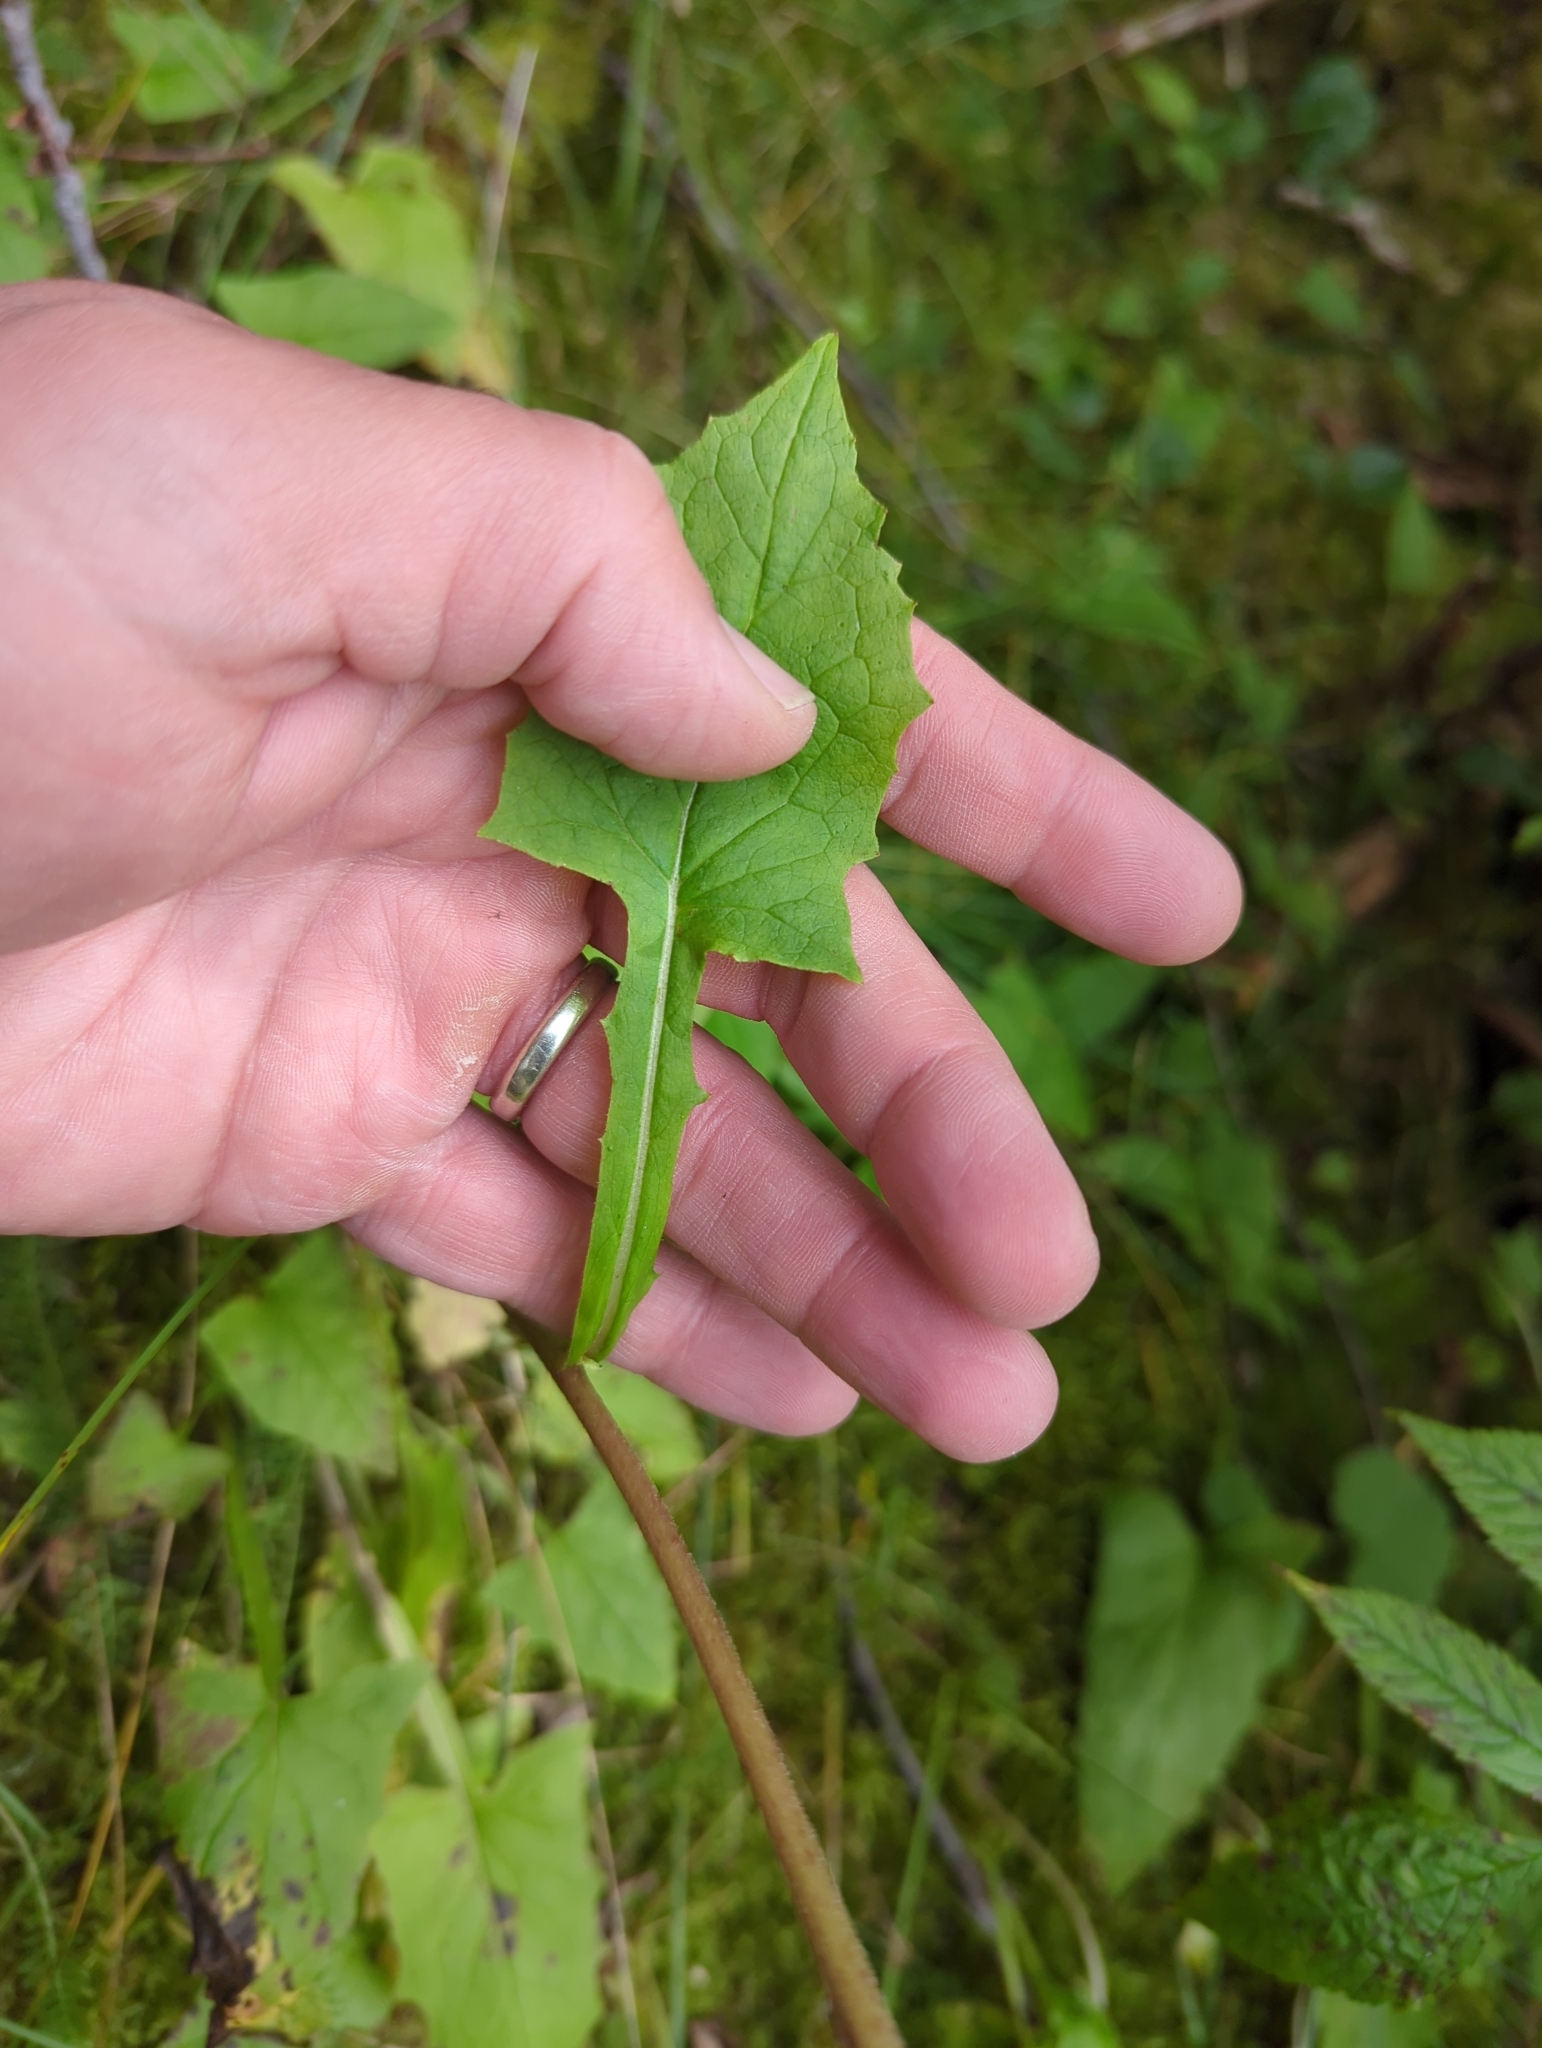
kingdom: Plantae
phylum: Tracheophyta
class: Magnoliopsida
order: Asterales
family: Asteraceae
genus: Nabalus
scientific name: Nabalus hastatus
